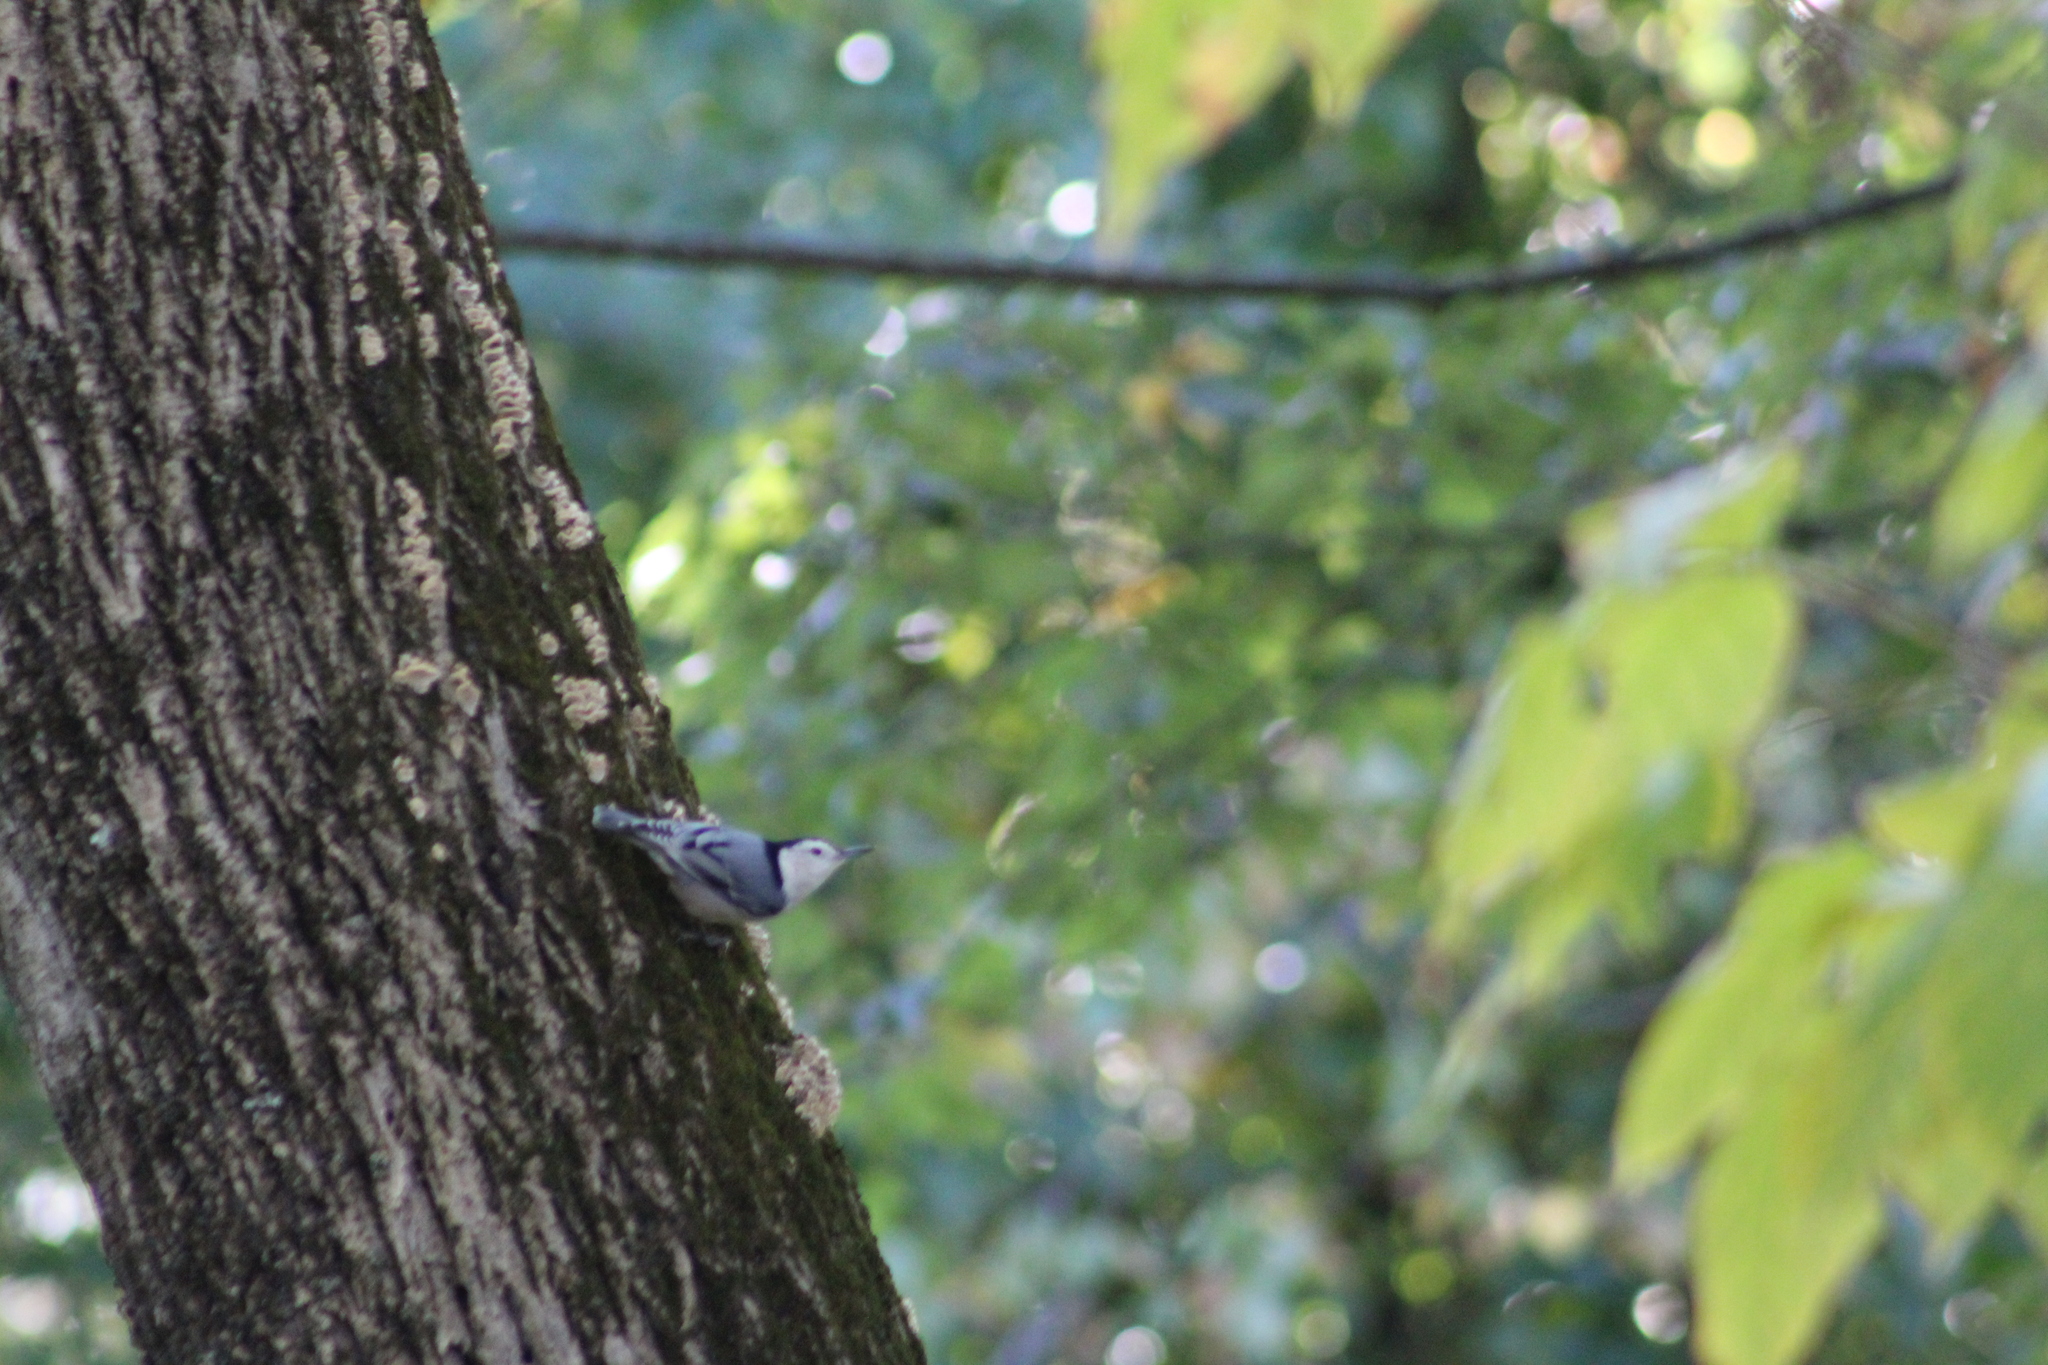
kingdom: Animalia
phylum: Chordata
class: Aves
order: Passeriformes
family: Sittidae
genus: Sitta
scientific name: Sitta carolinensis
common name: White-breasted nuthatch
